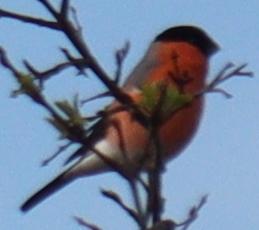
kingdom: Animalia
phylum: Chordata
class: Aves
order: Passeriformes
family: Fringillidae
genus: Pyrrhula
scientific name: Pyrrhula pyrrhula
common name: Eurasian bullfinch
